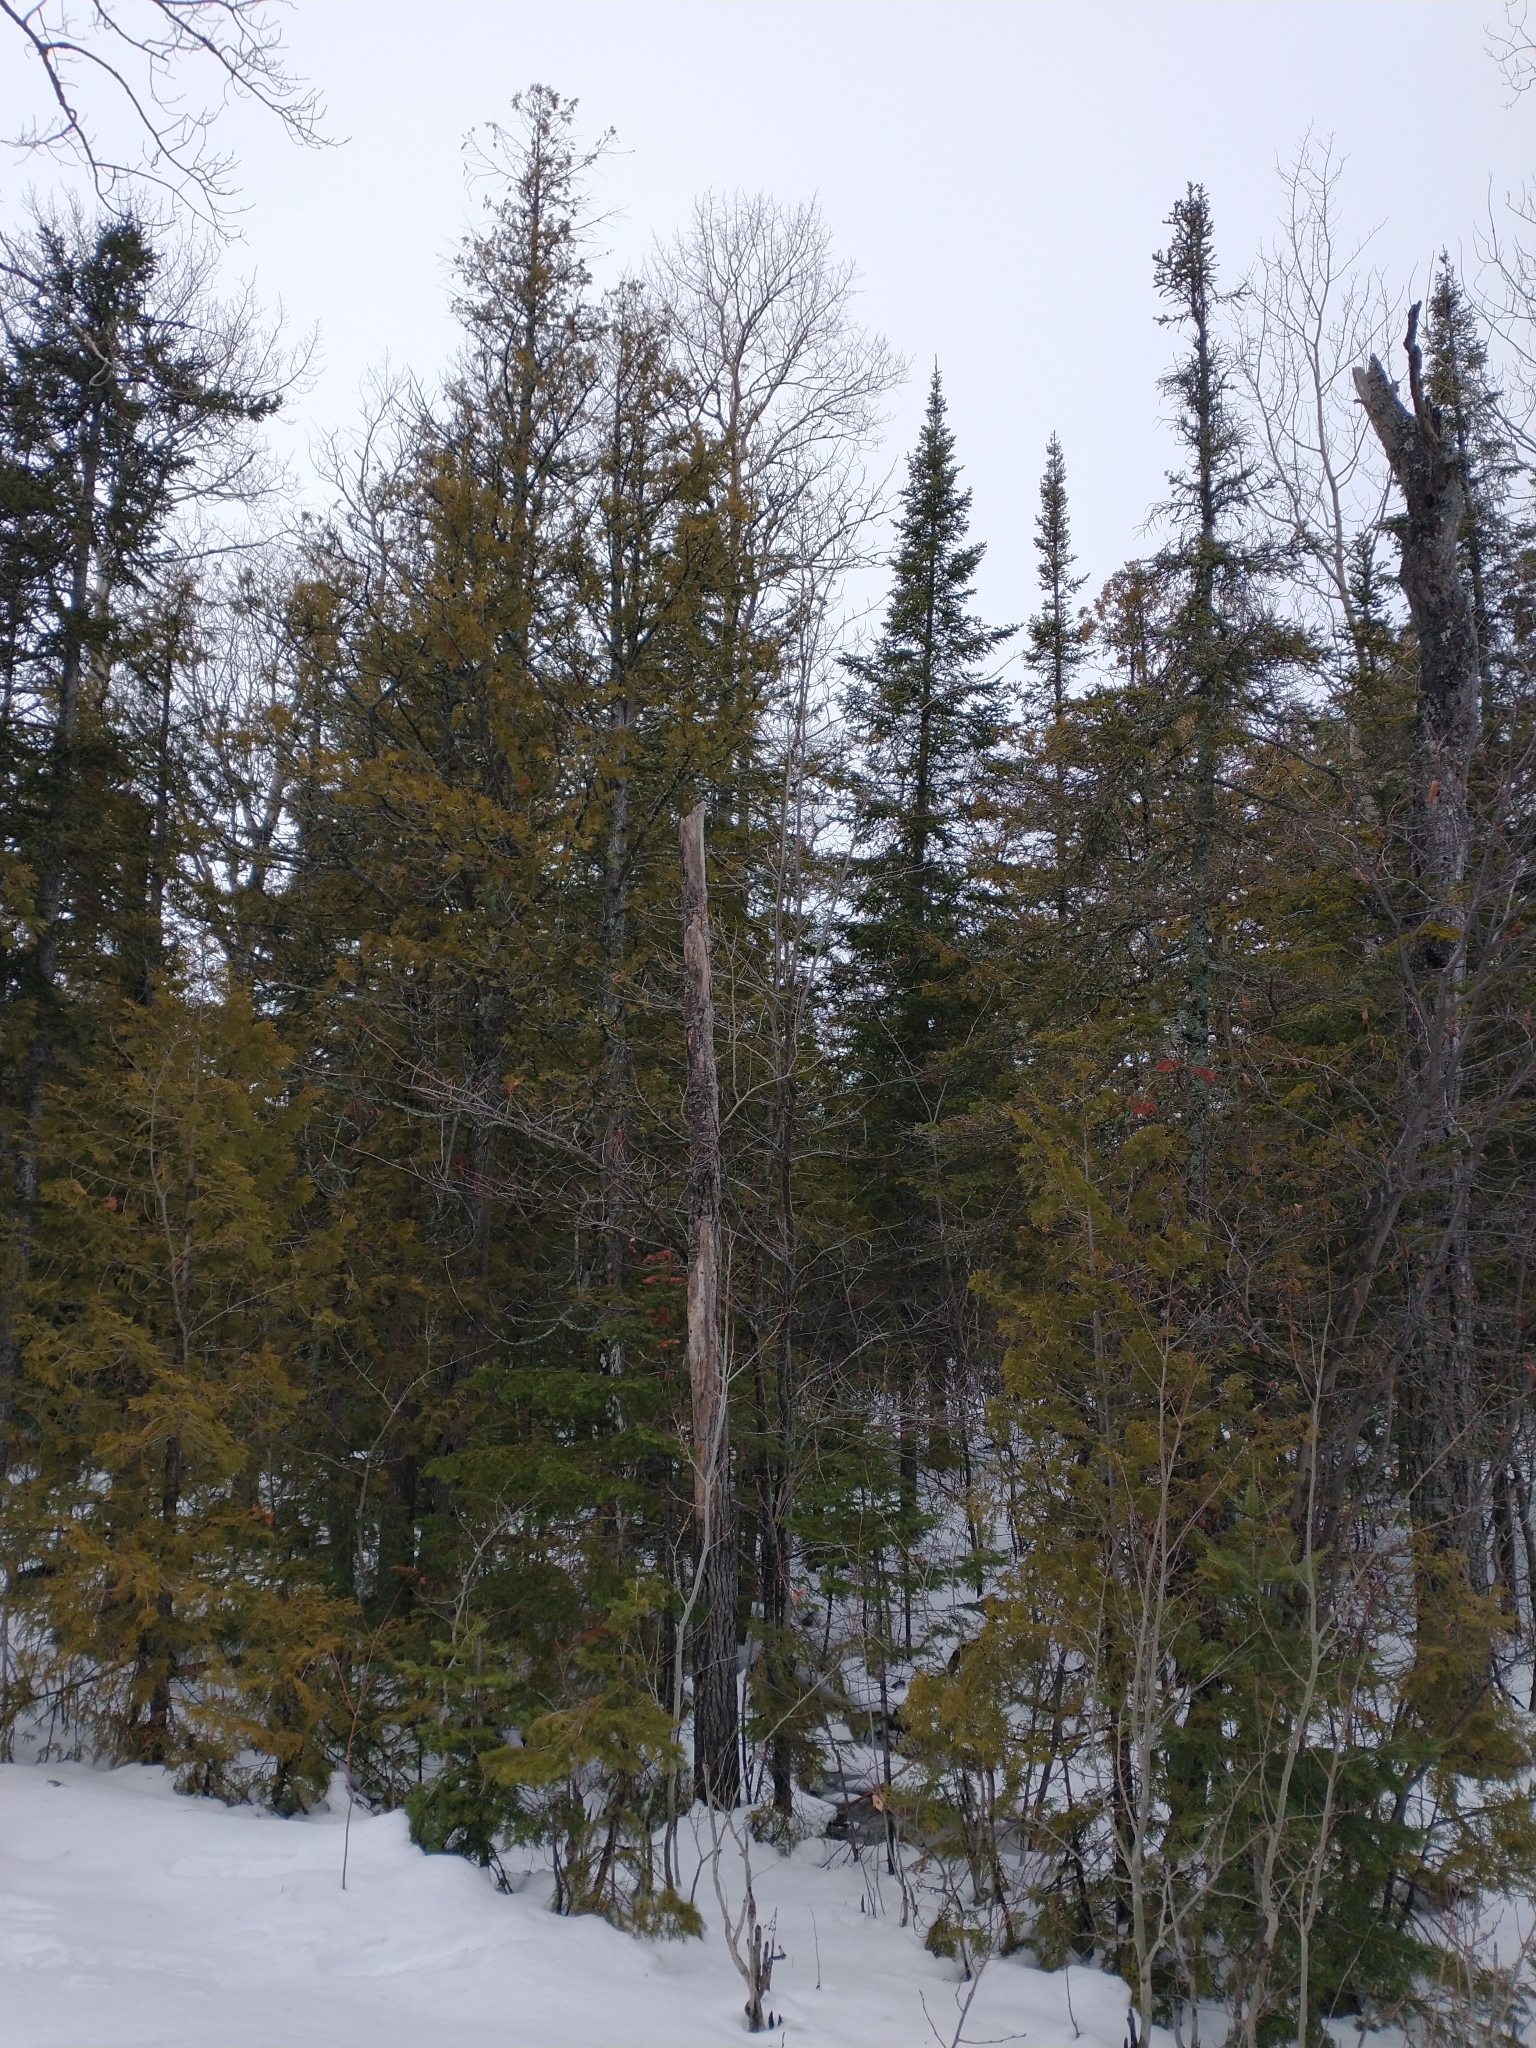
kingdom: Plantae
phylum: Tracheophyta
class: Pinopsida
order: Pinales
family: Cupressaceae
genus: Thuja
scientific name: Thuja occidentalis
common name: Northern white-cedar
